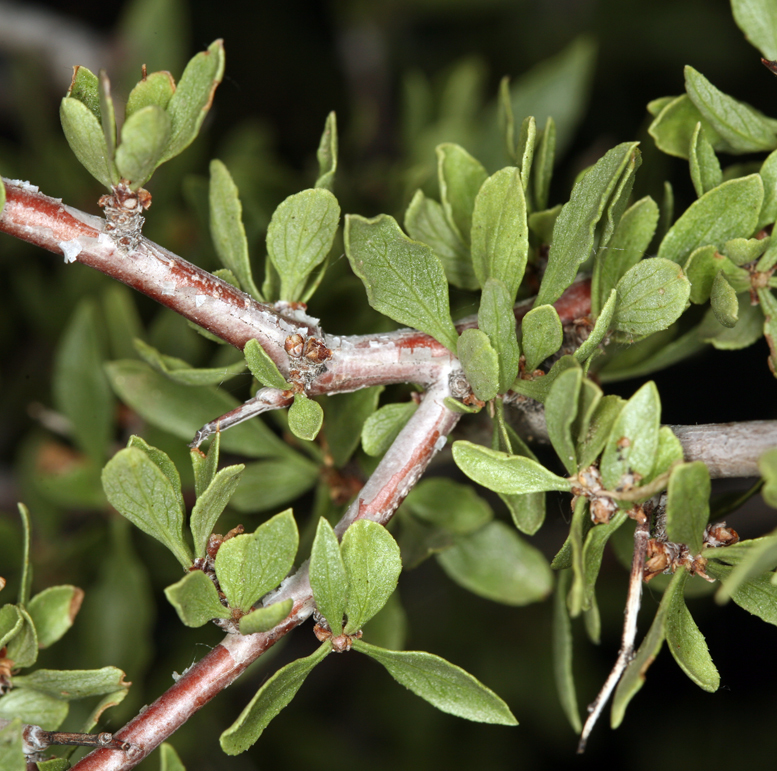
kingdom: Plantae
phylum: Tracheophyta
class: Magnoliopsida
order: Rosales
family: Rosaceae
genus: Prunus
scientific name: Prunus andersonii
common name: Desert peach
